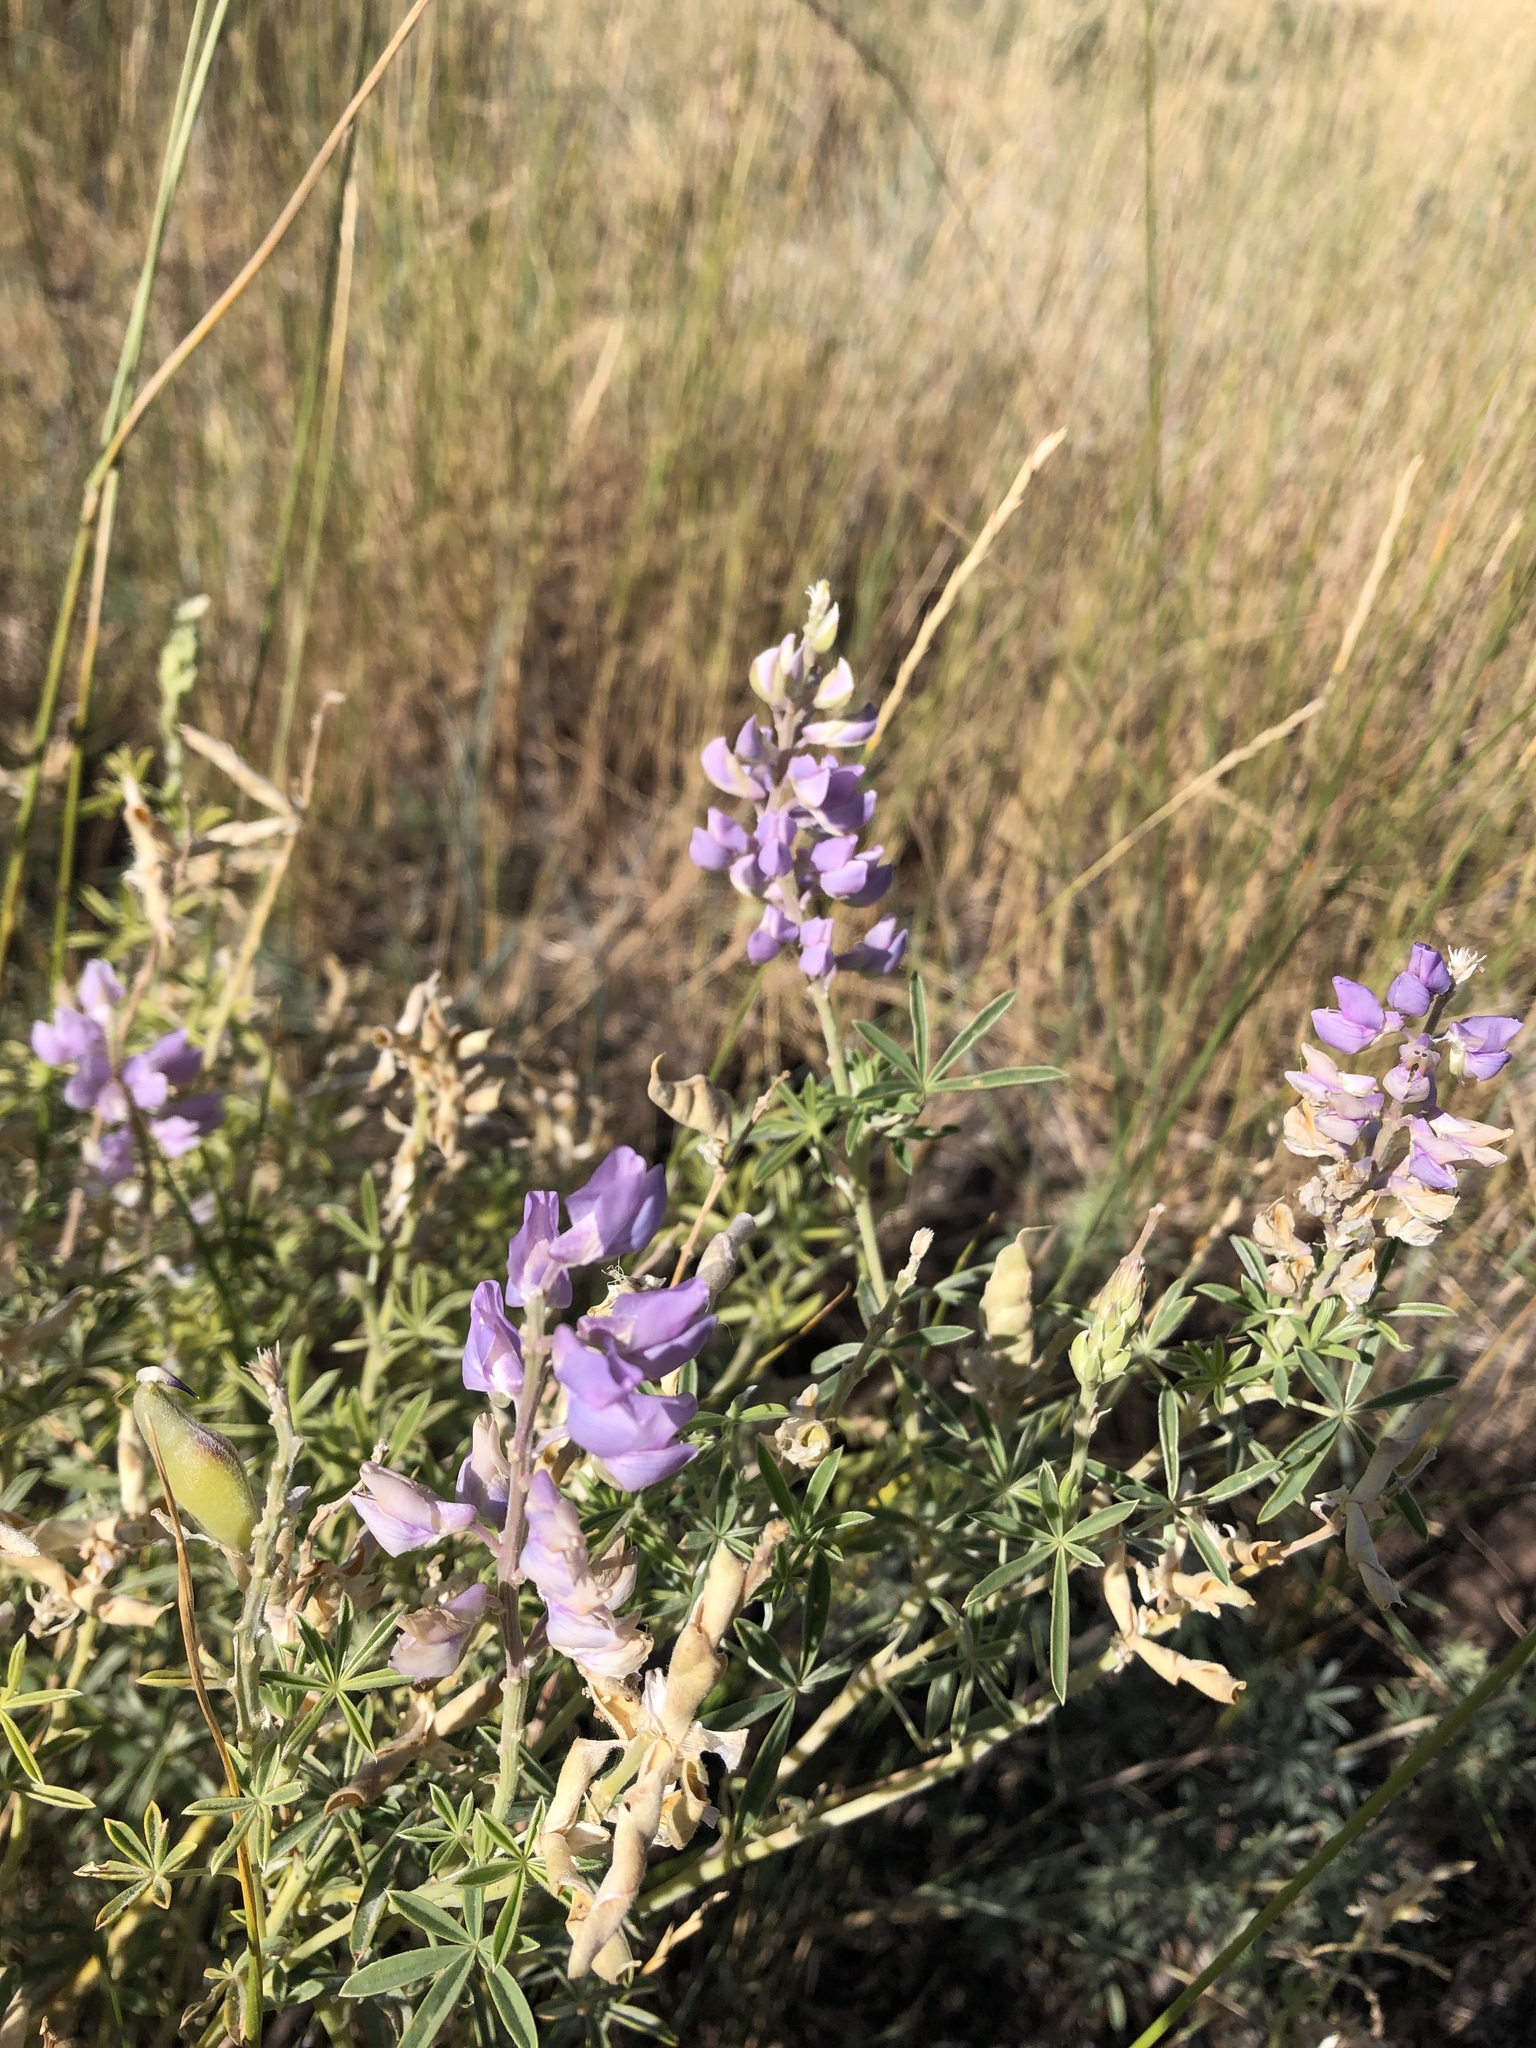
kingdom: Plantae
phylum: Tracheophyta
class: Magnoliopsida
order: Fabales
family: Fabaceae
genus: Lupinus
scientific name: Lupinus argenteus
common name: Silvery lupine
